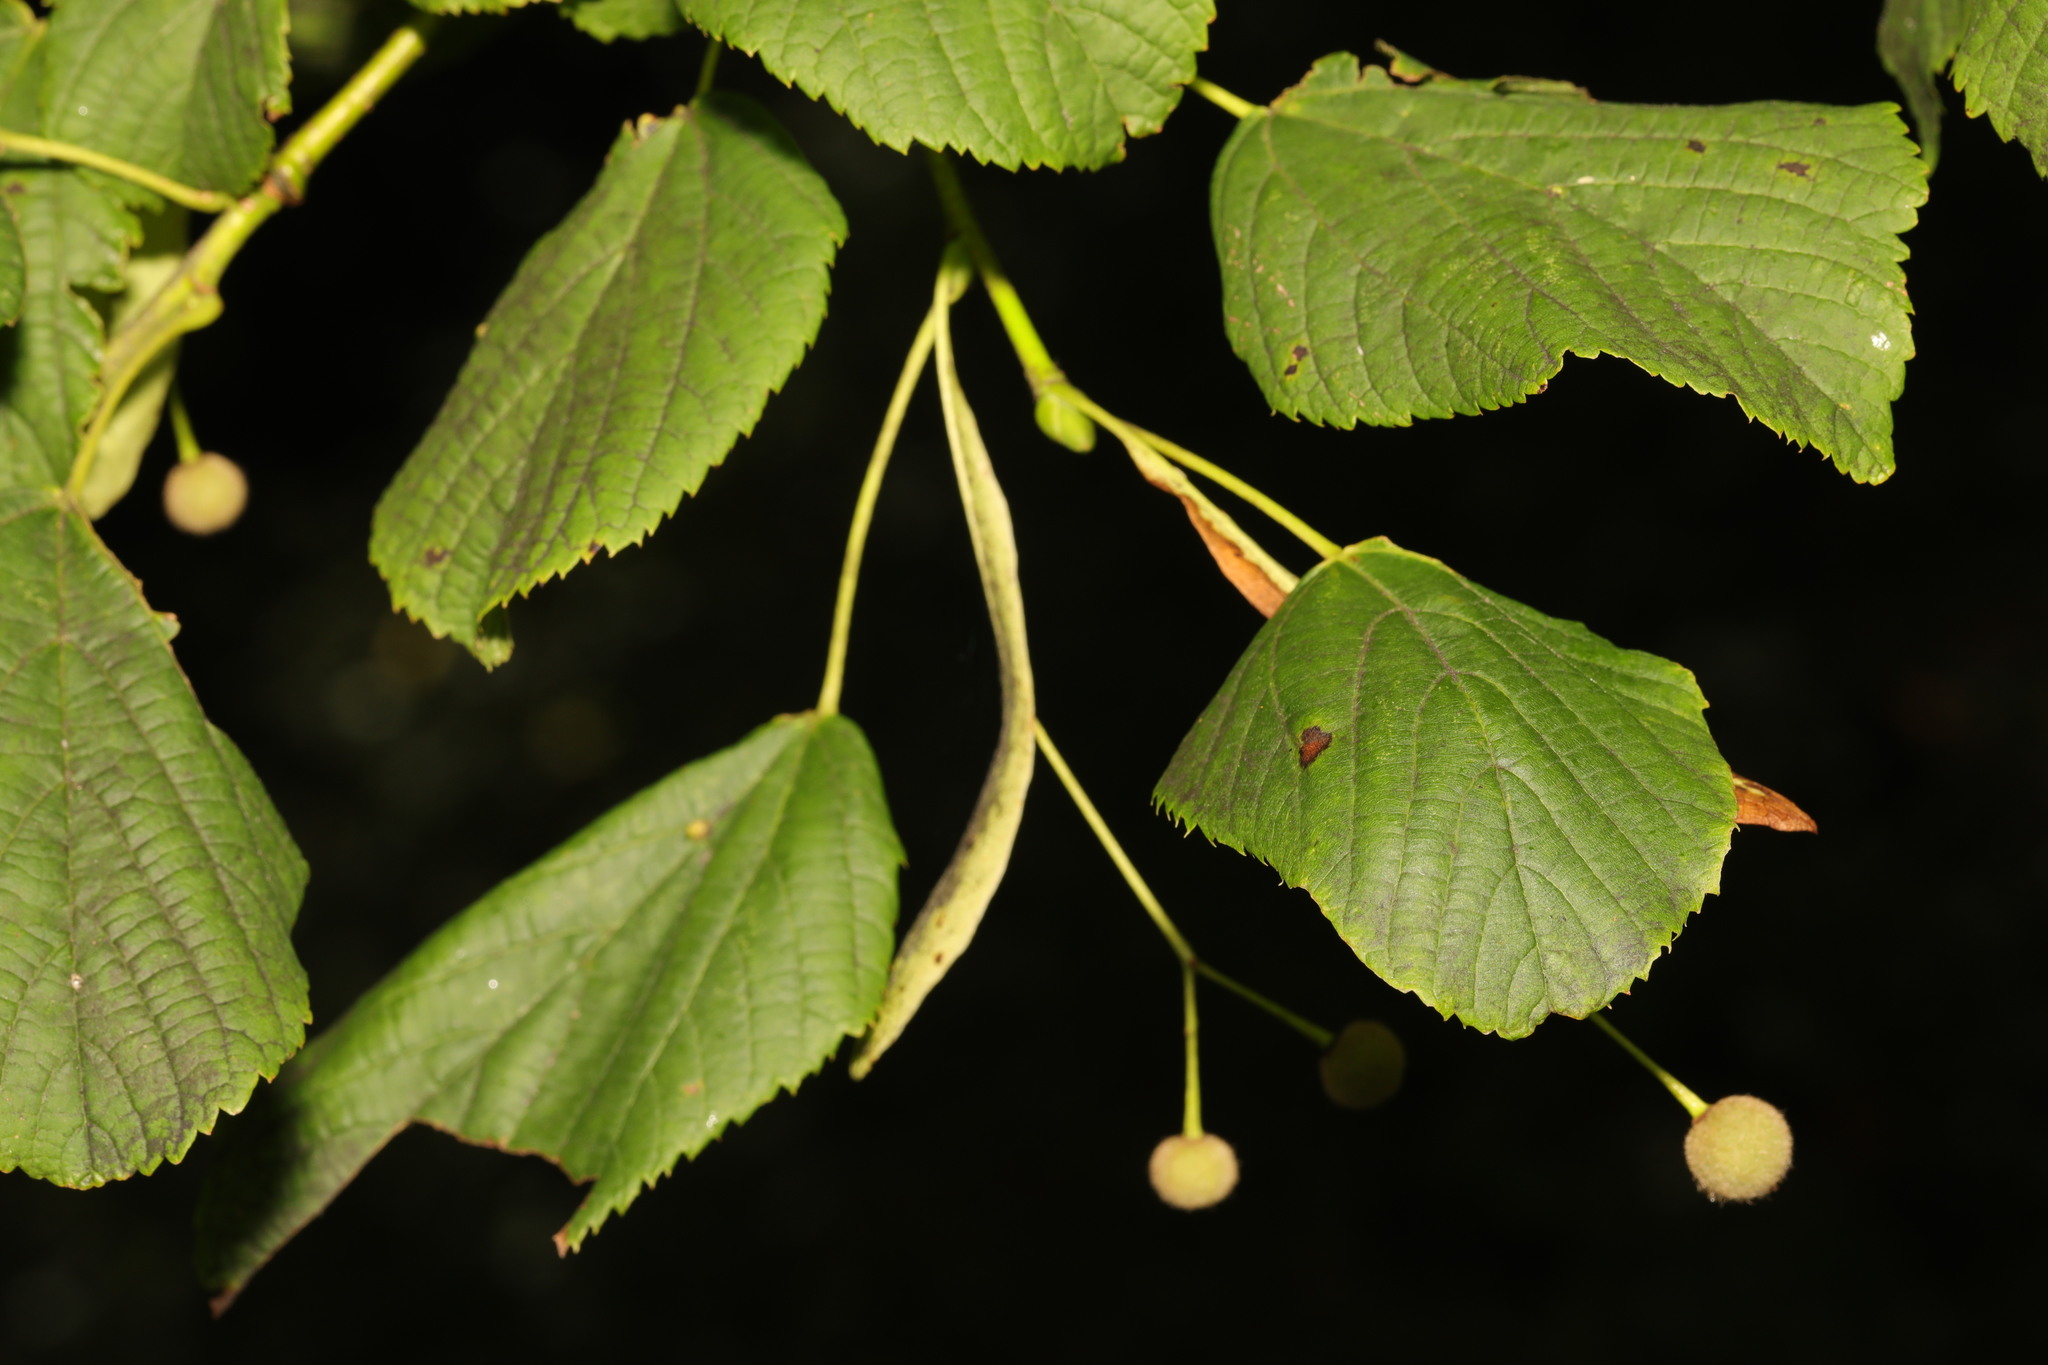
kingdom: Plantae
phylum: Tracheophyta
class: Magnoliopsida
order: Malvales
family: Malvaceae
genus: Tilia
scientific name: Tilia europaea
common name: European linden
